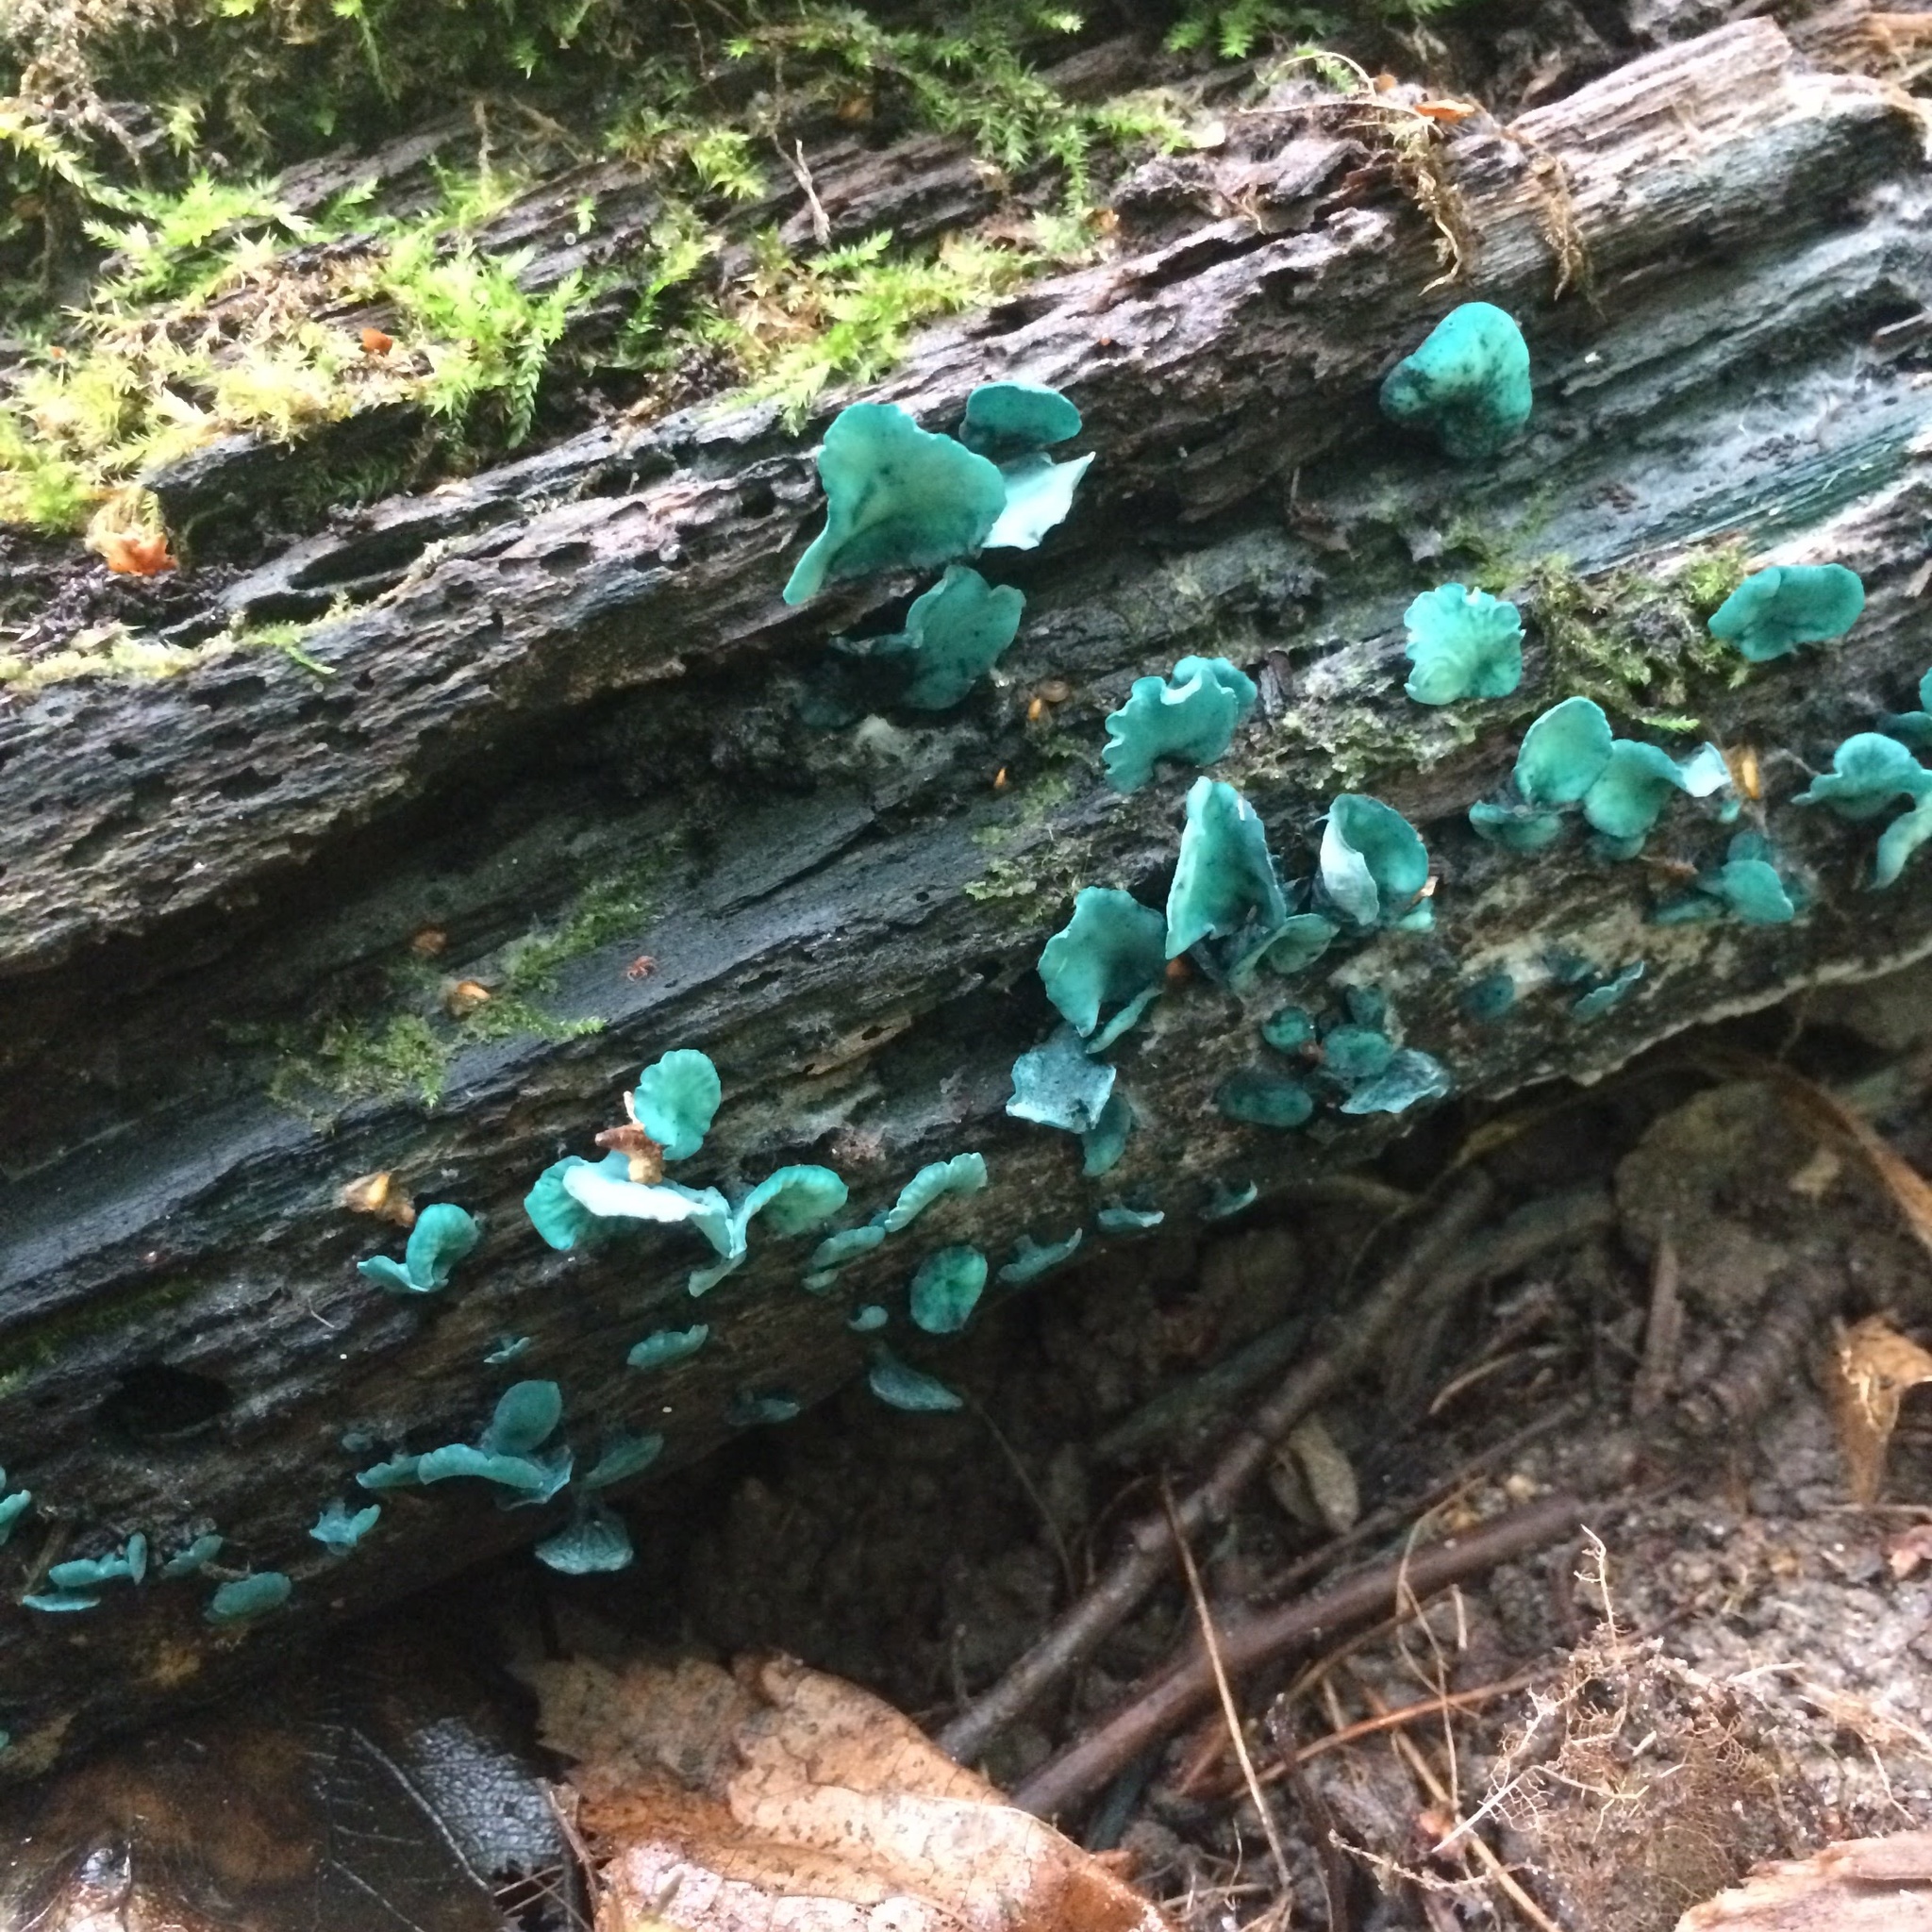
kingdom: Fungi
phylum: Ascomycota
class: Leotiomycetes
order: Helotiales
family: Chlorociboriaceae
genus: Chlorociboria
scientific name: Chlorociboria aeruginascens
